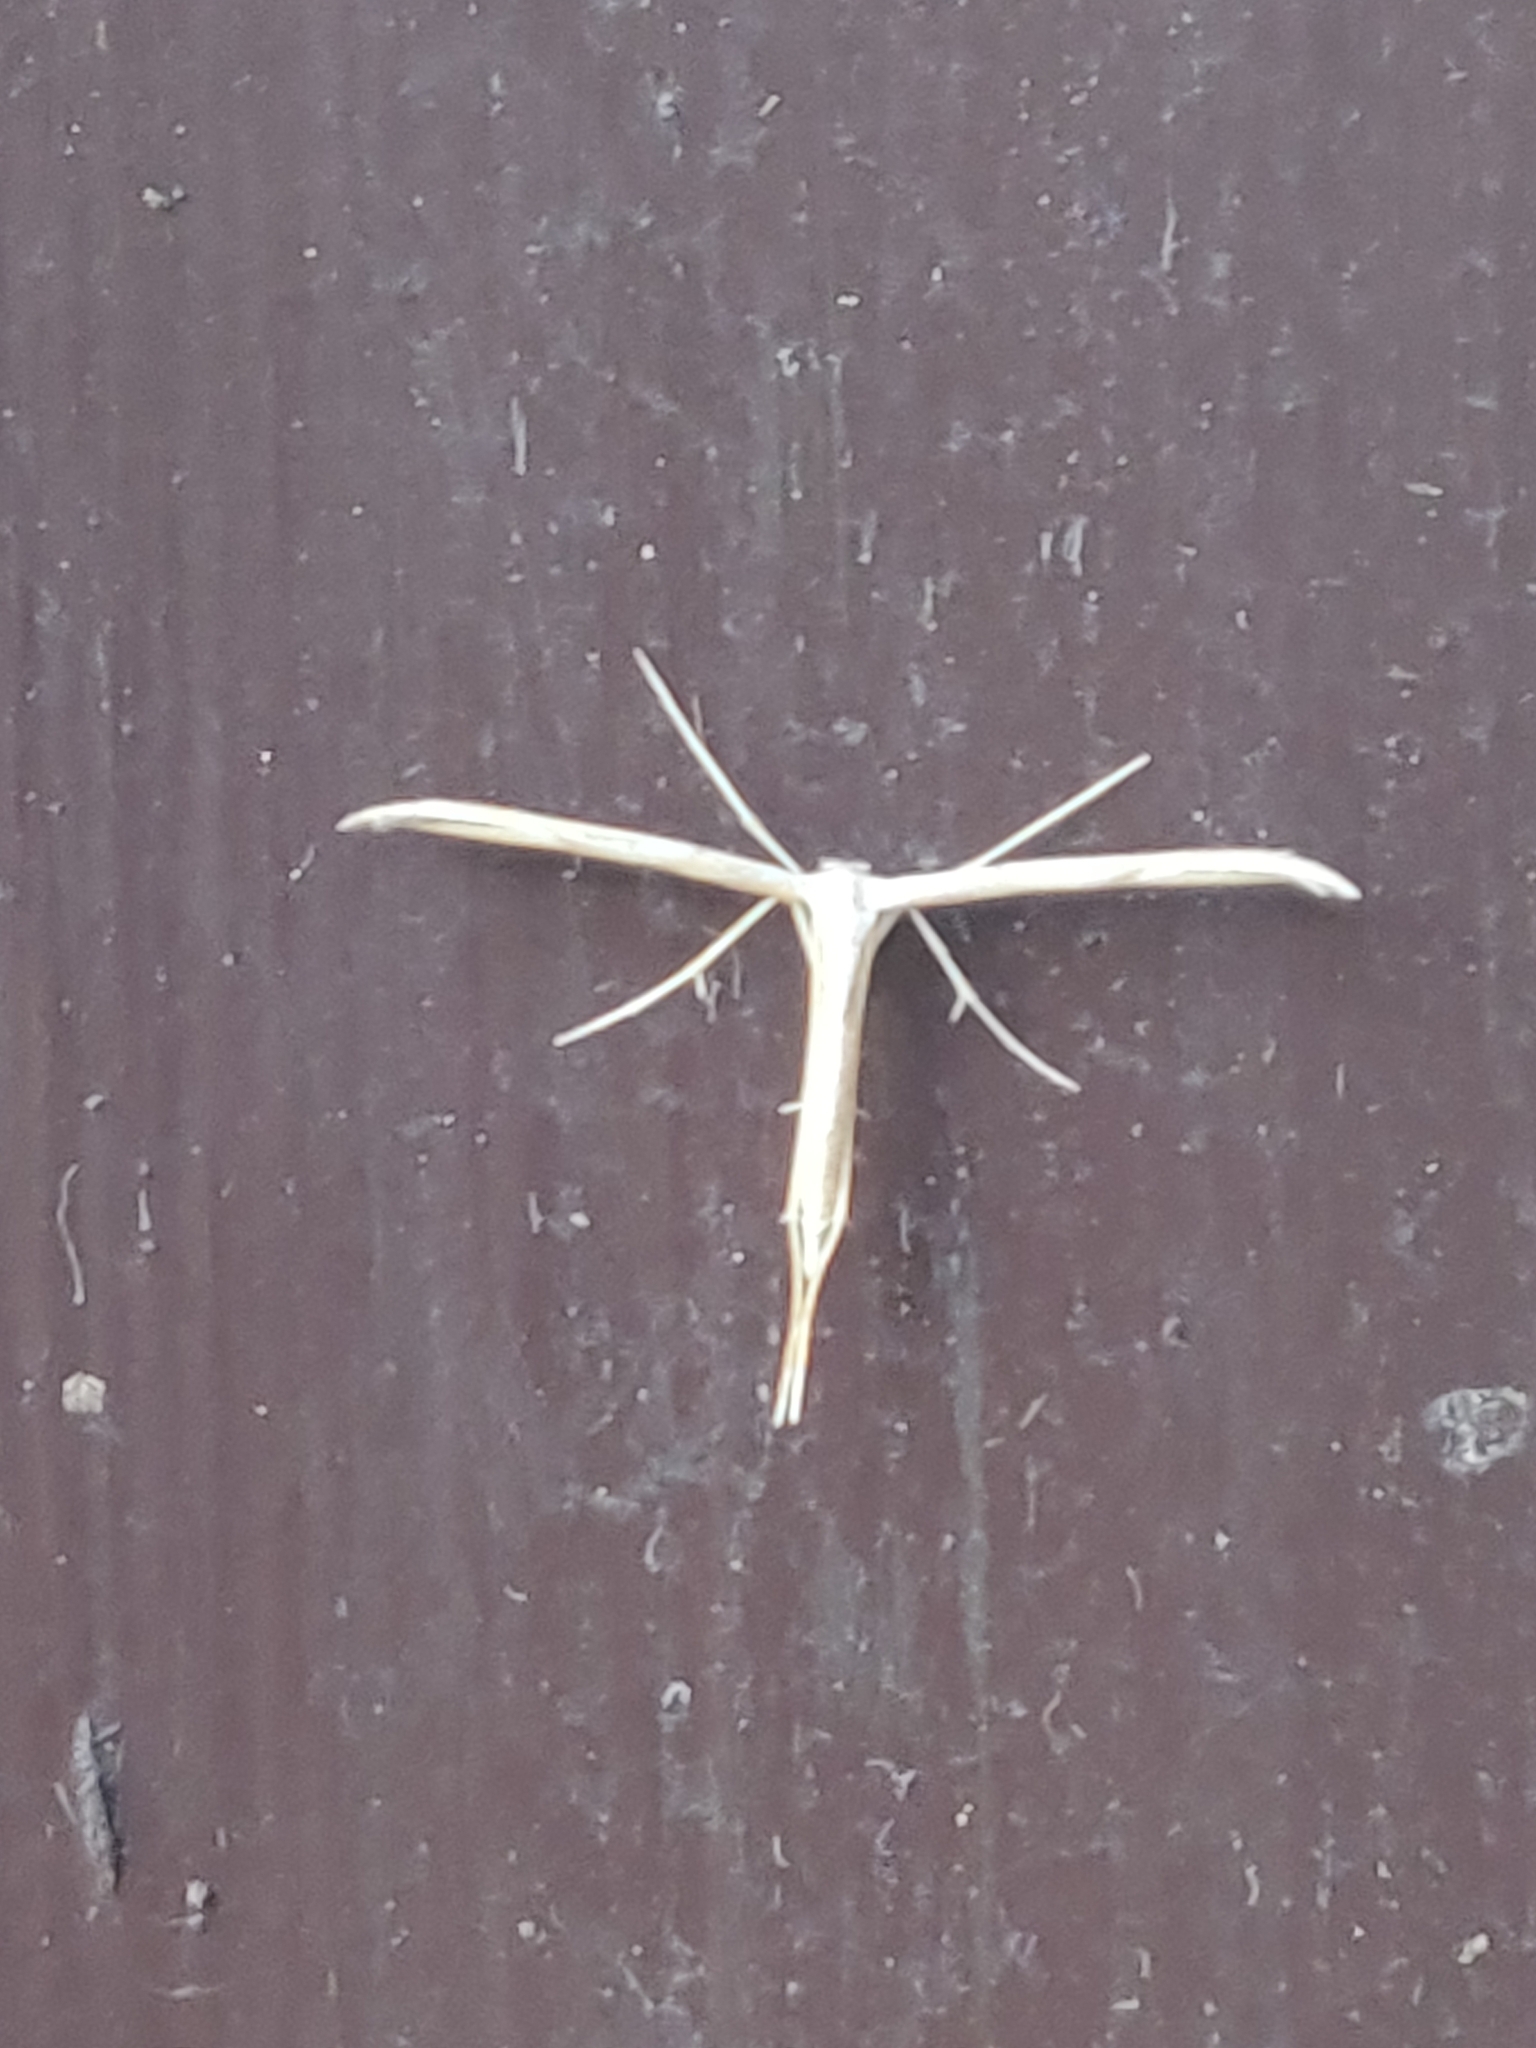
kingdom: Animalia
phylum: Arthropoda
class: Insecta
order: Lepidoptera
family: Pterophoridae
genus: Emmelina
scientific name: Emmelina monodactyla
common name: Common plume
